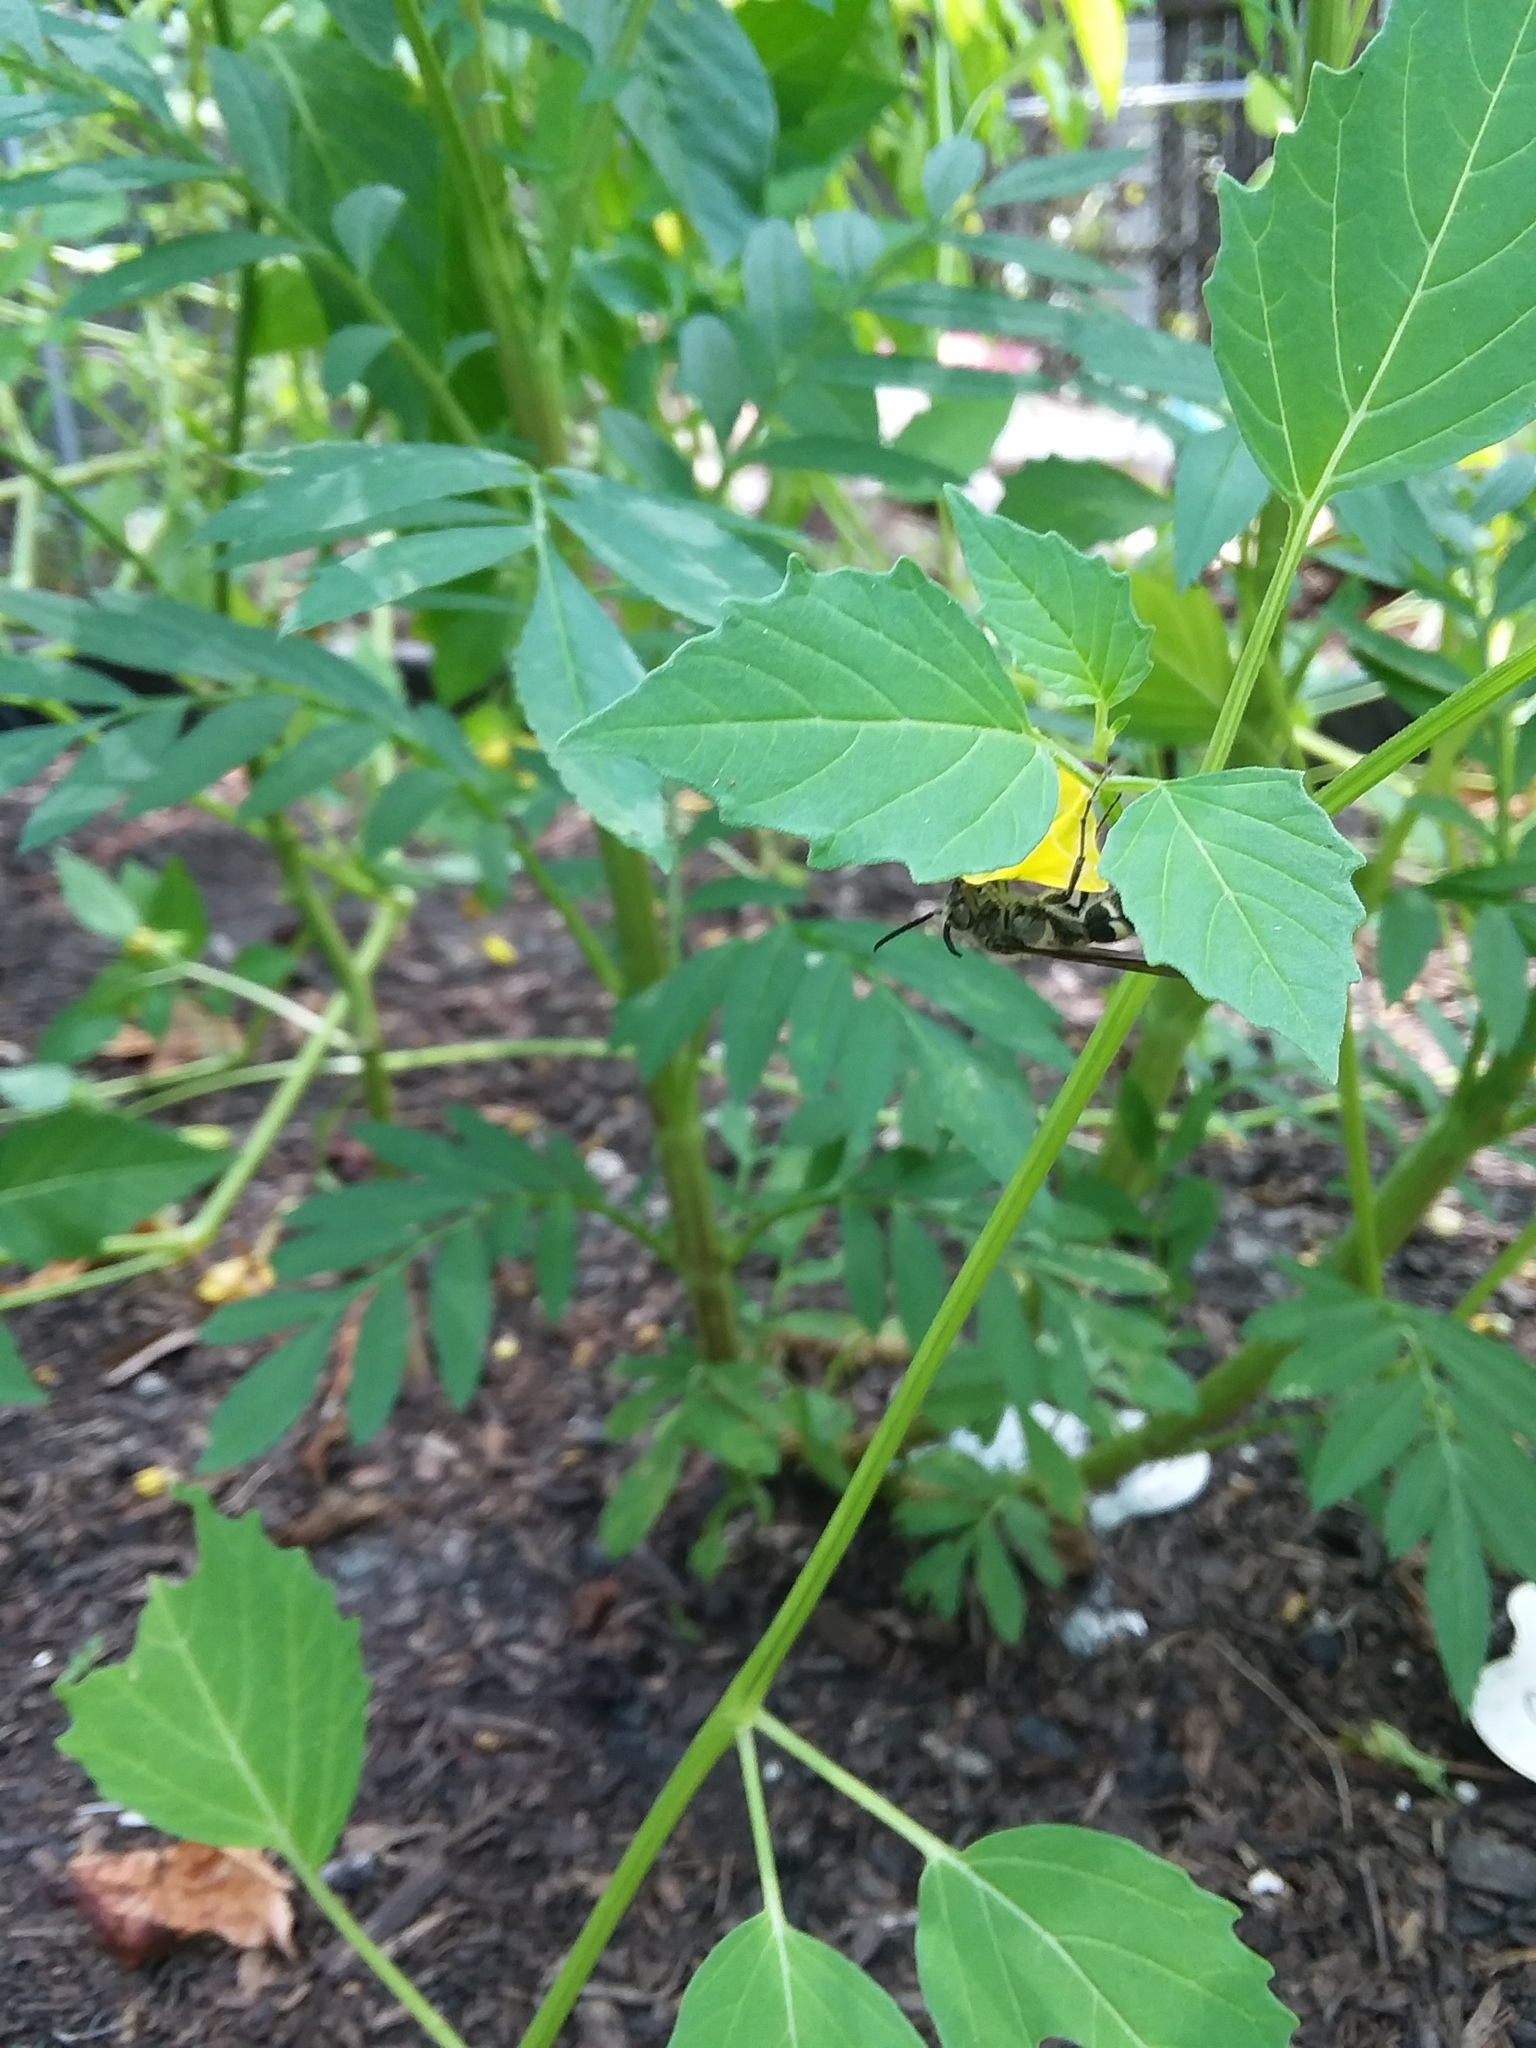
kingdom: Animalia
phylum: Arthropoda
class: Insecta
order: Hymenoptera
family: Scoliidae
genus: Dielis
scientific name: Dielis
